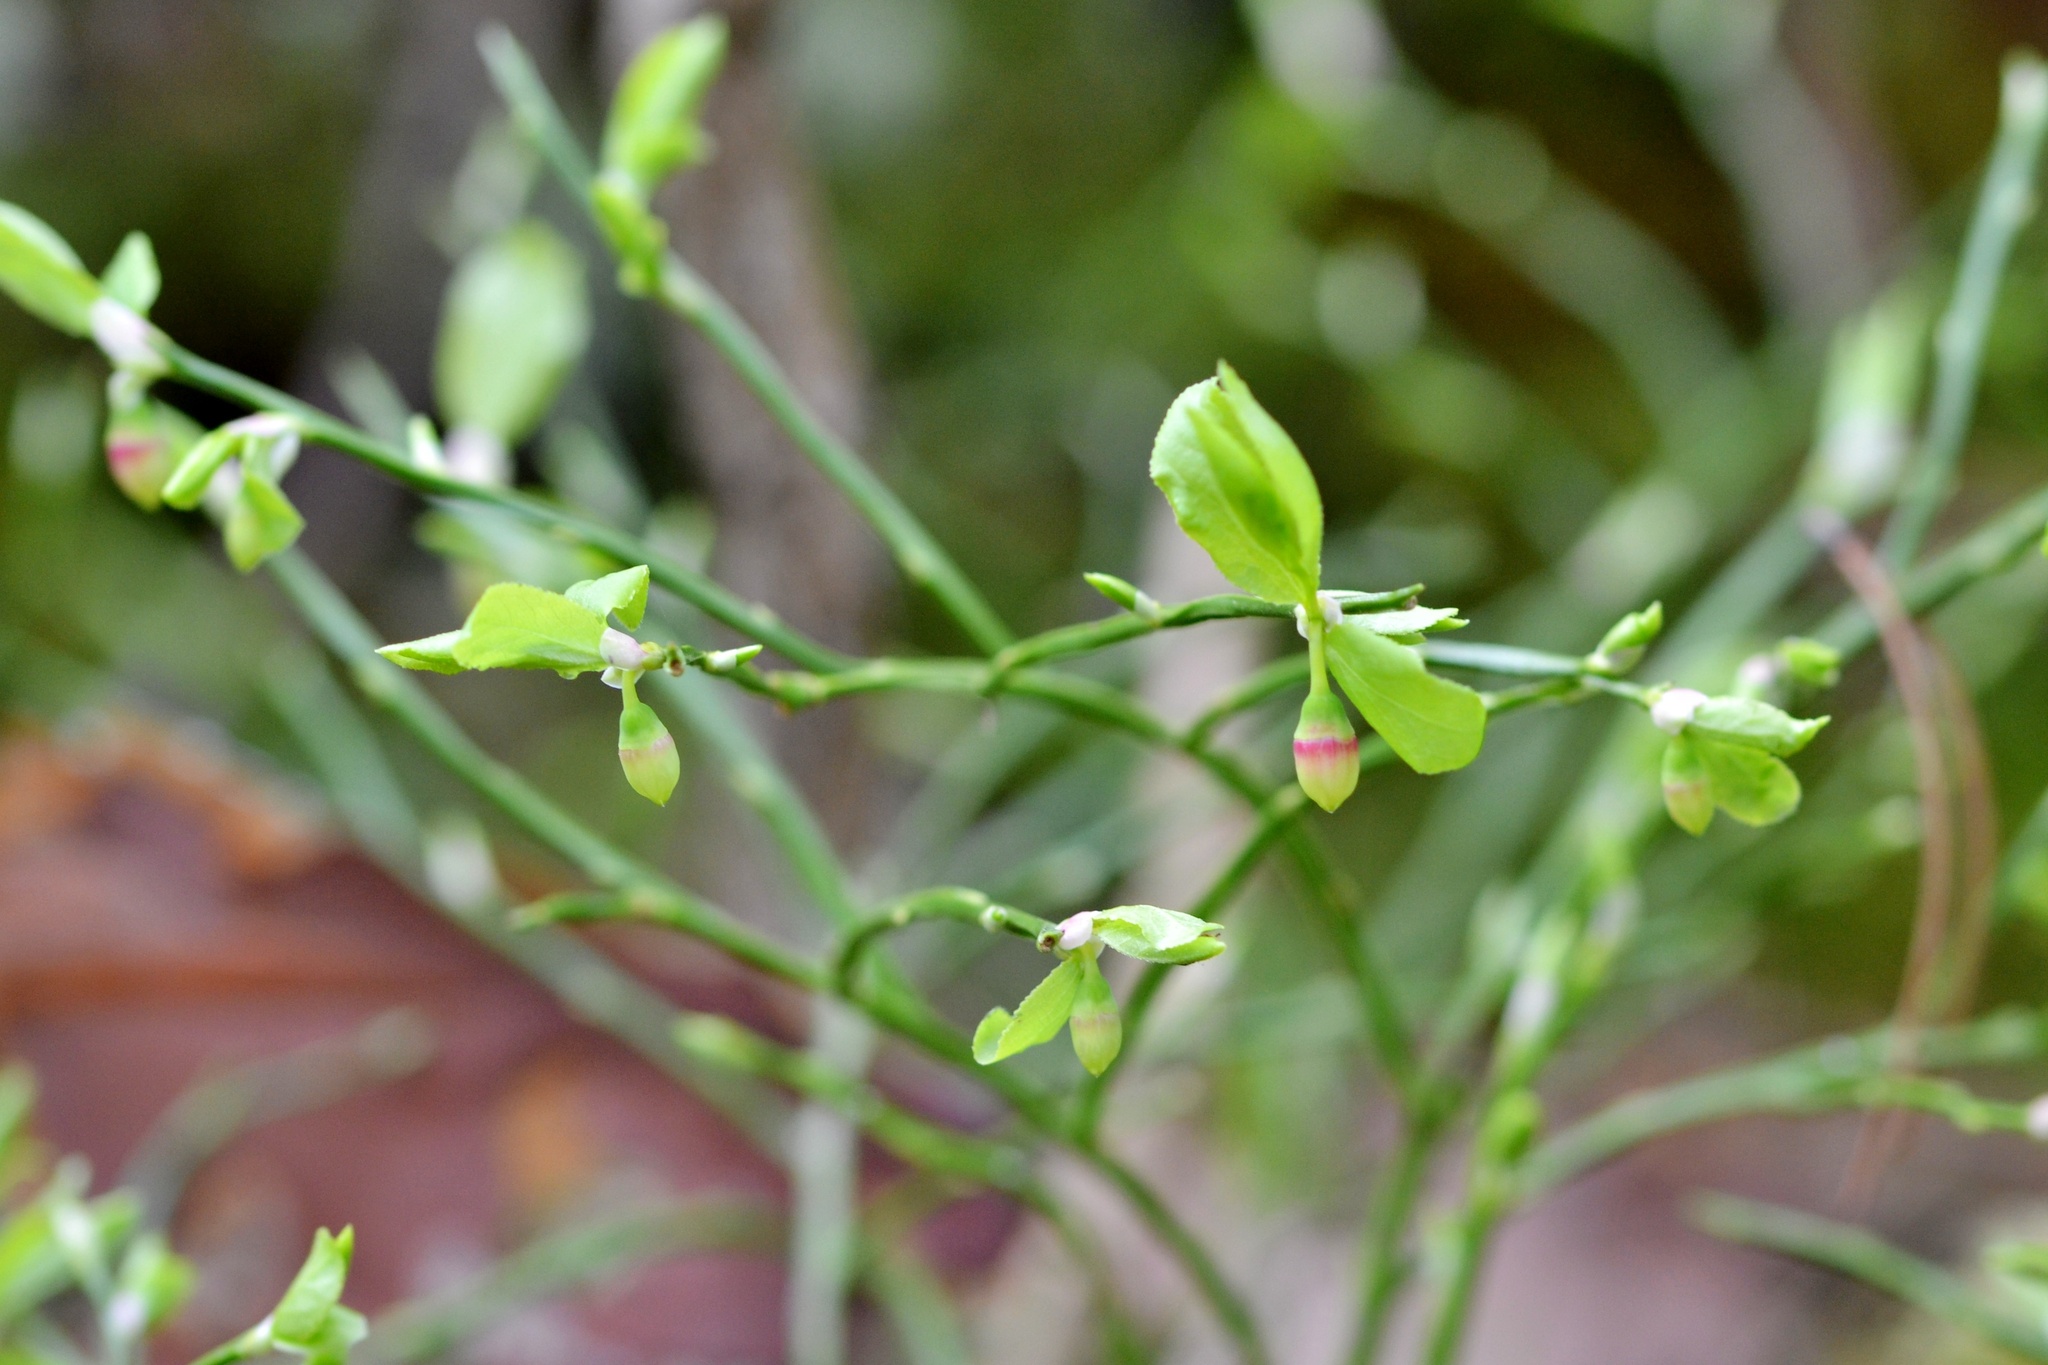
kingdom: Plantae
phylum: Tracheophyta
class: Magnoliopsida
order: Ericales
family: Ericaceae
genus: Vaccinium
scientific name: Vaccinium myrtillus
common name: Bilberry
